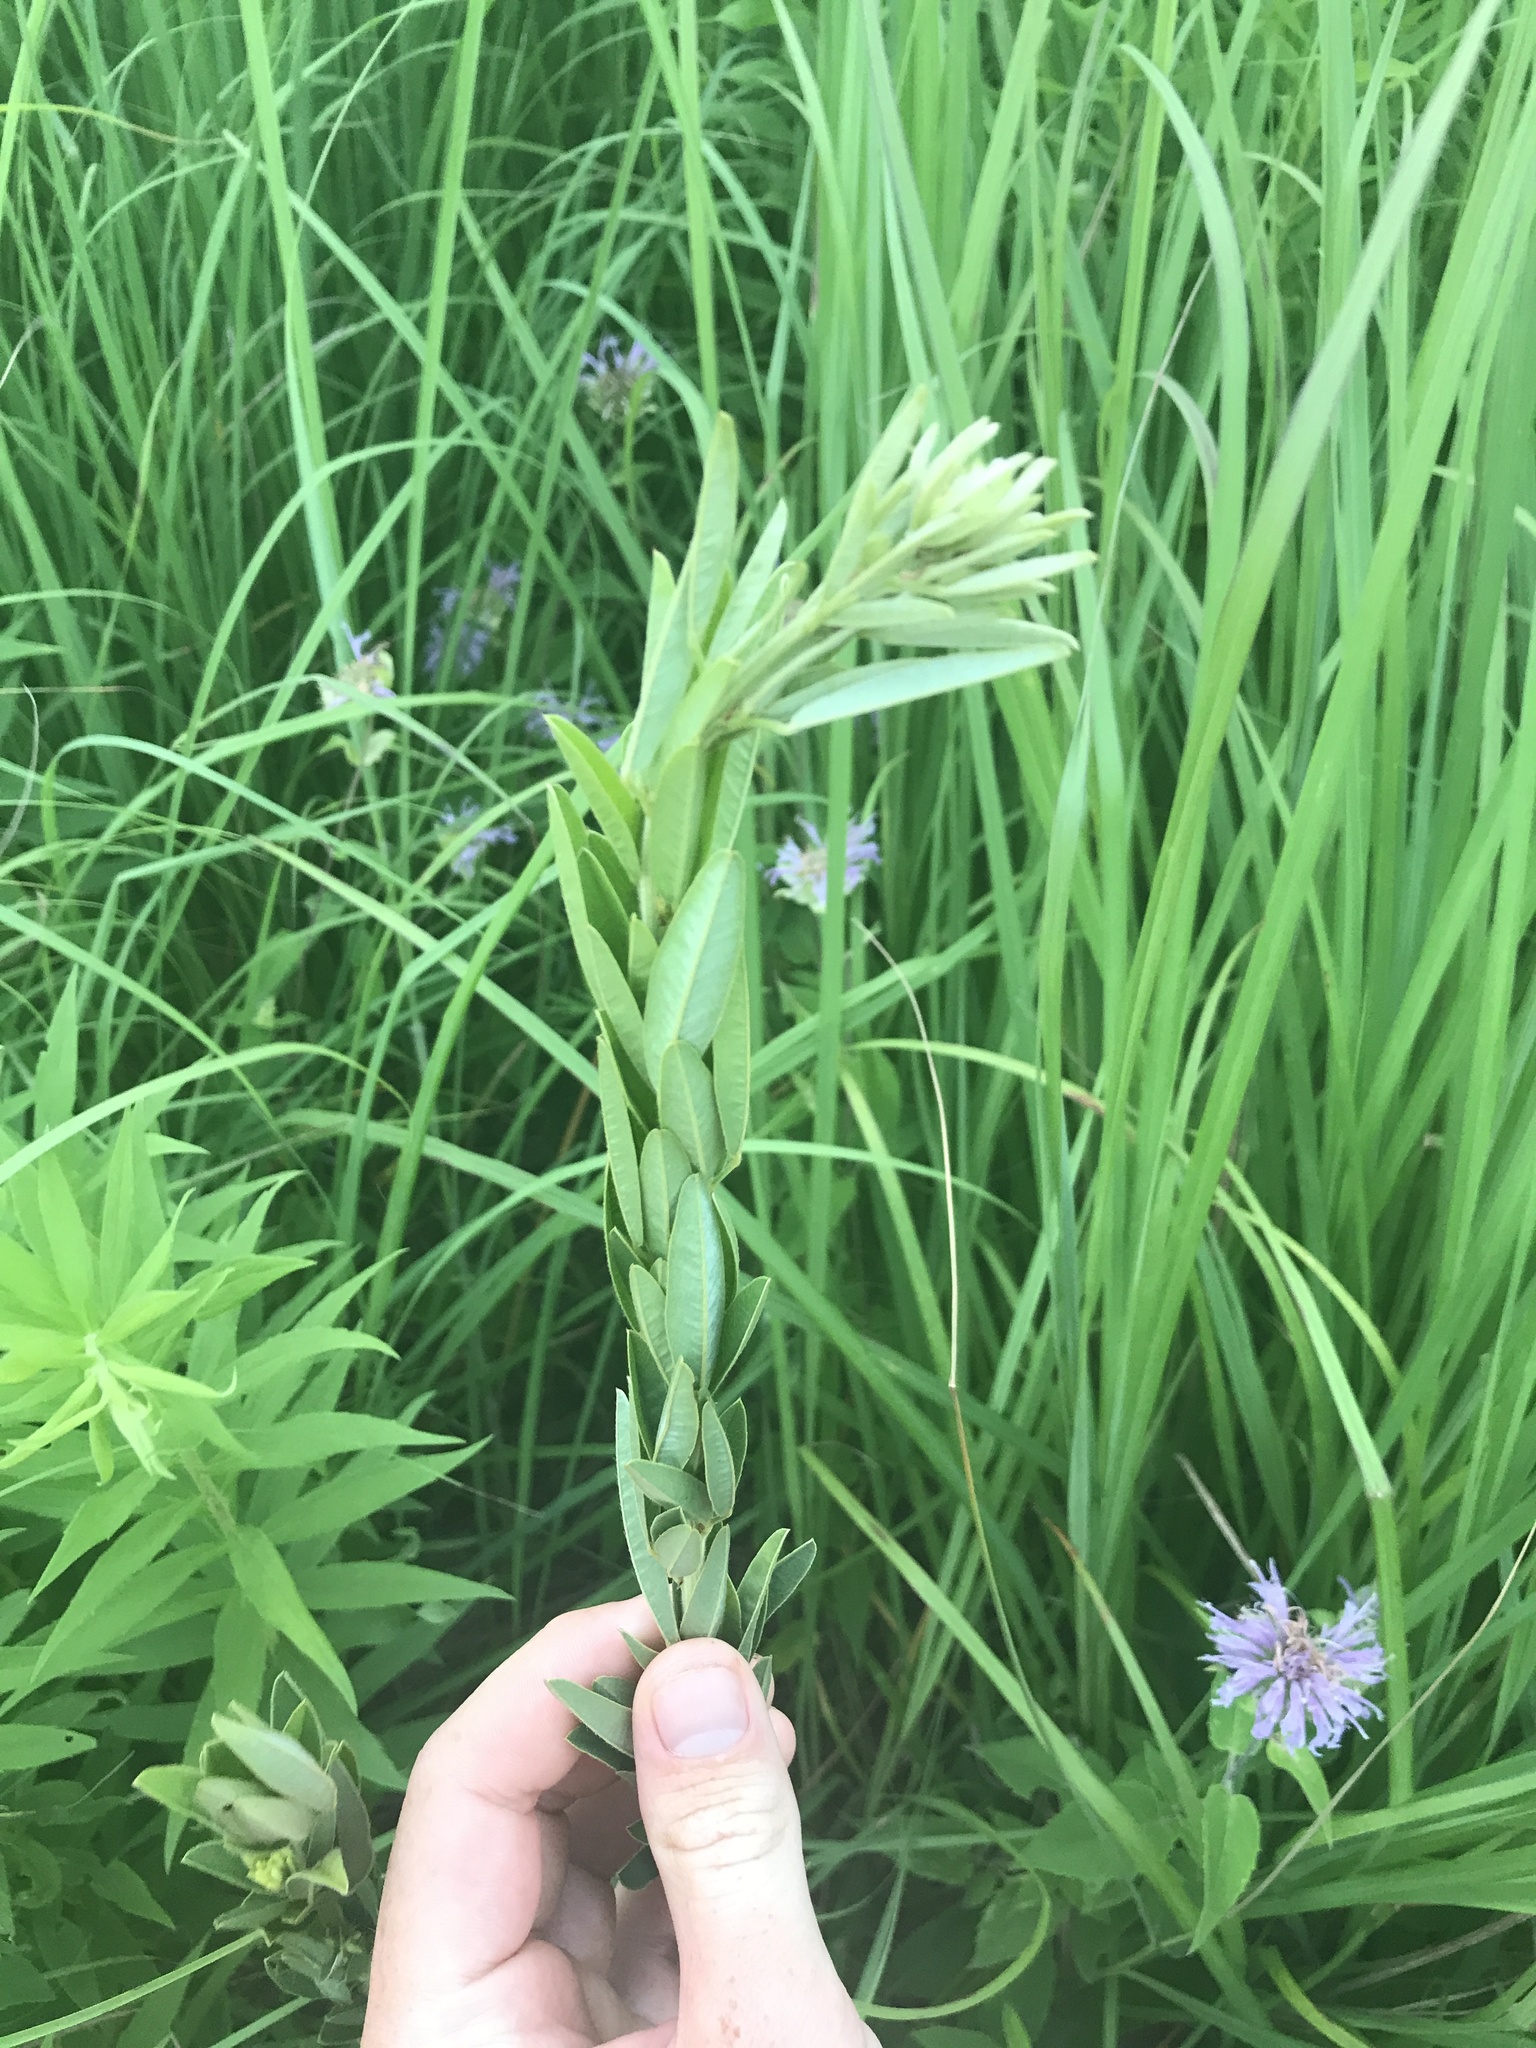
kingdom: Plantae
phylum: Tracheophyta
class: Magnoliopsida
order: Fabales
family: Fabaceae
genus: Lespedeza
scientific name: Lespedeza capitata
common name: Dusty clover
